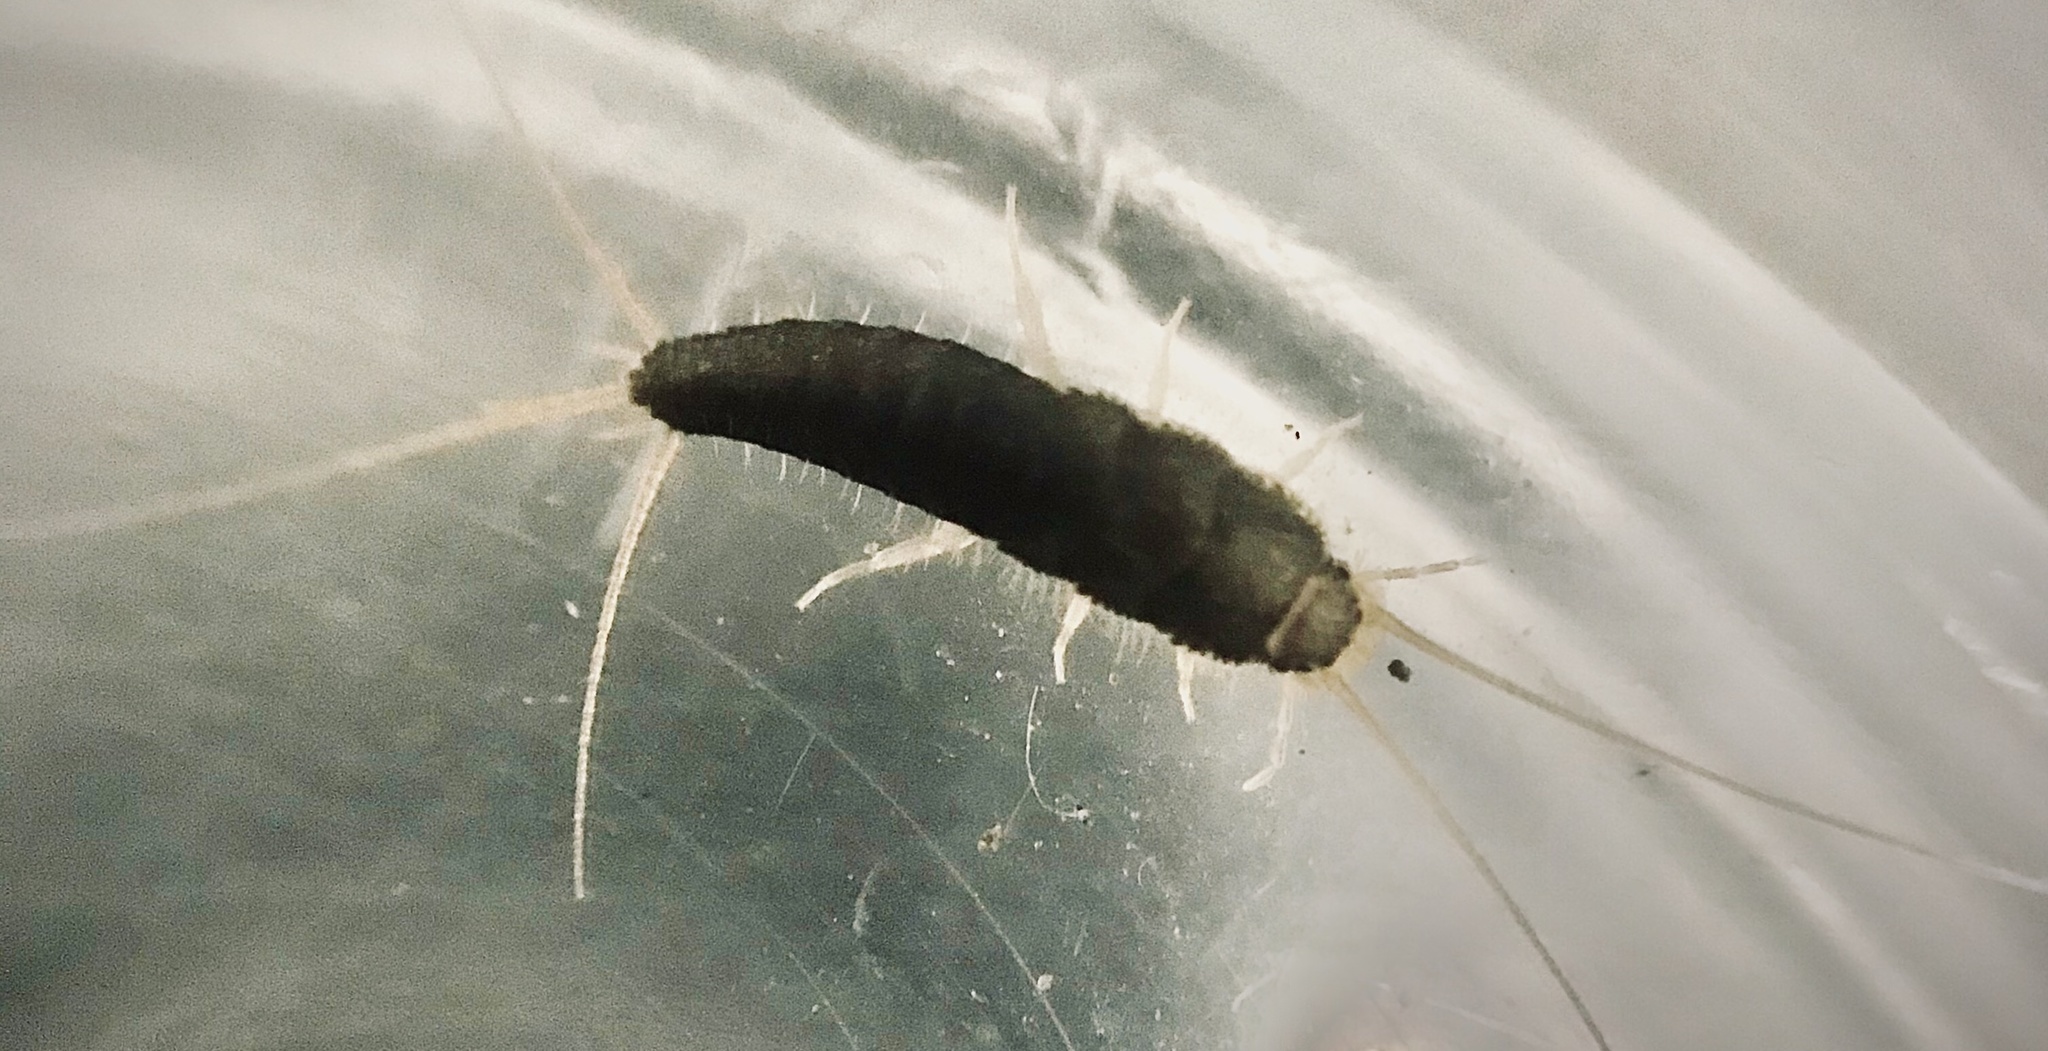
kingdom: Animalia
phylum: Arthropoda
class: Insecta
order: Zygentoma
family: Lepismatidae
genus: Ctenolepisma
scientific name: Ctenolepisma longicaudatum
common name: Silverfish
